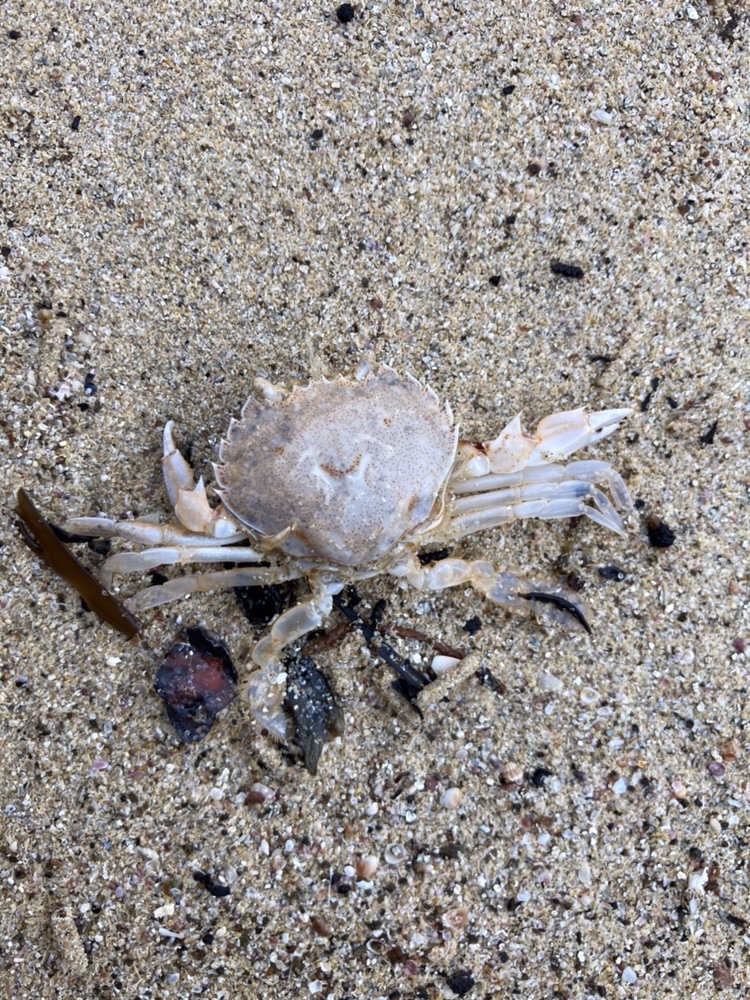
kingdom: Animalia
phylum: Arthropoda
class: Malacostraca
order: Decapoda
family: Ovalipidae
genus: Ovalipes
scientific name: Ovalipes catharus
